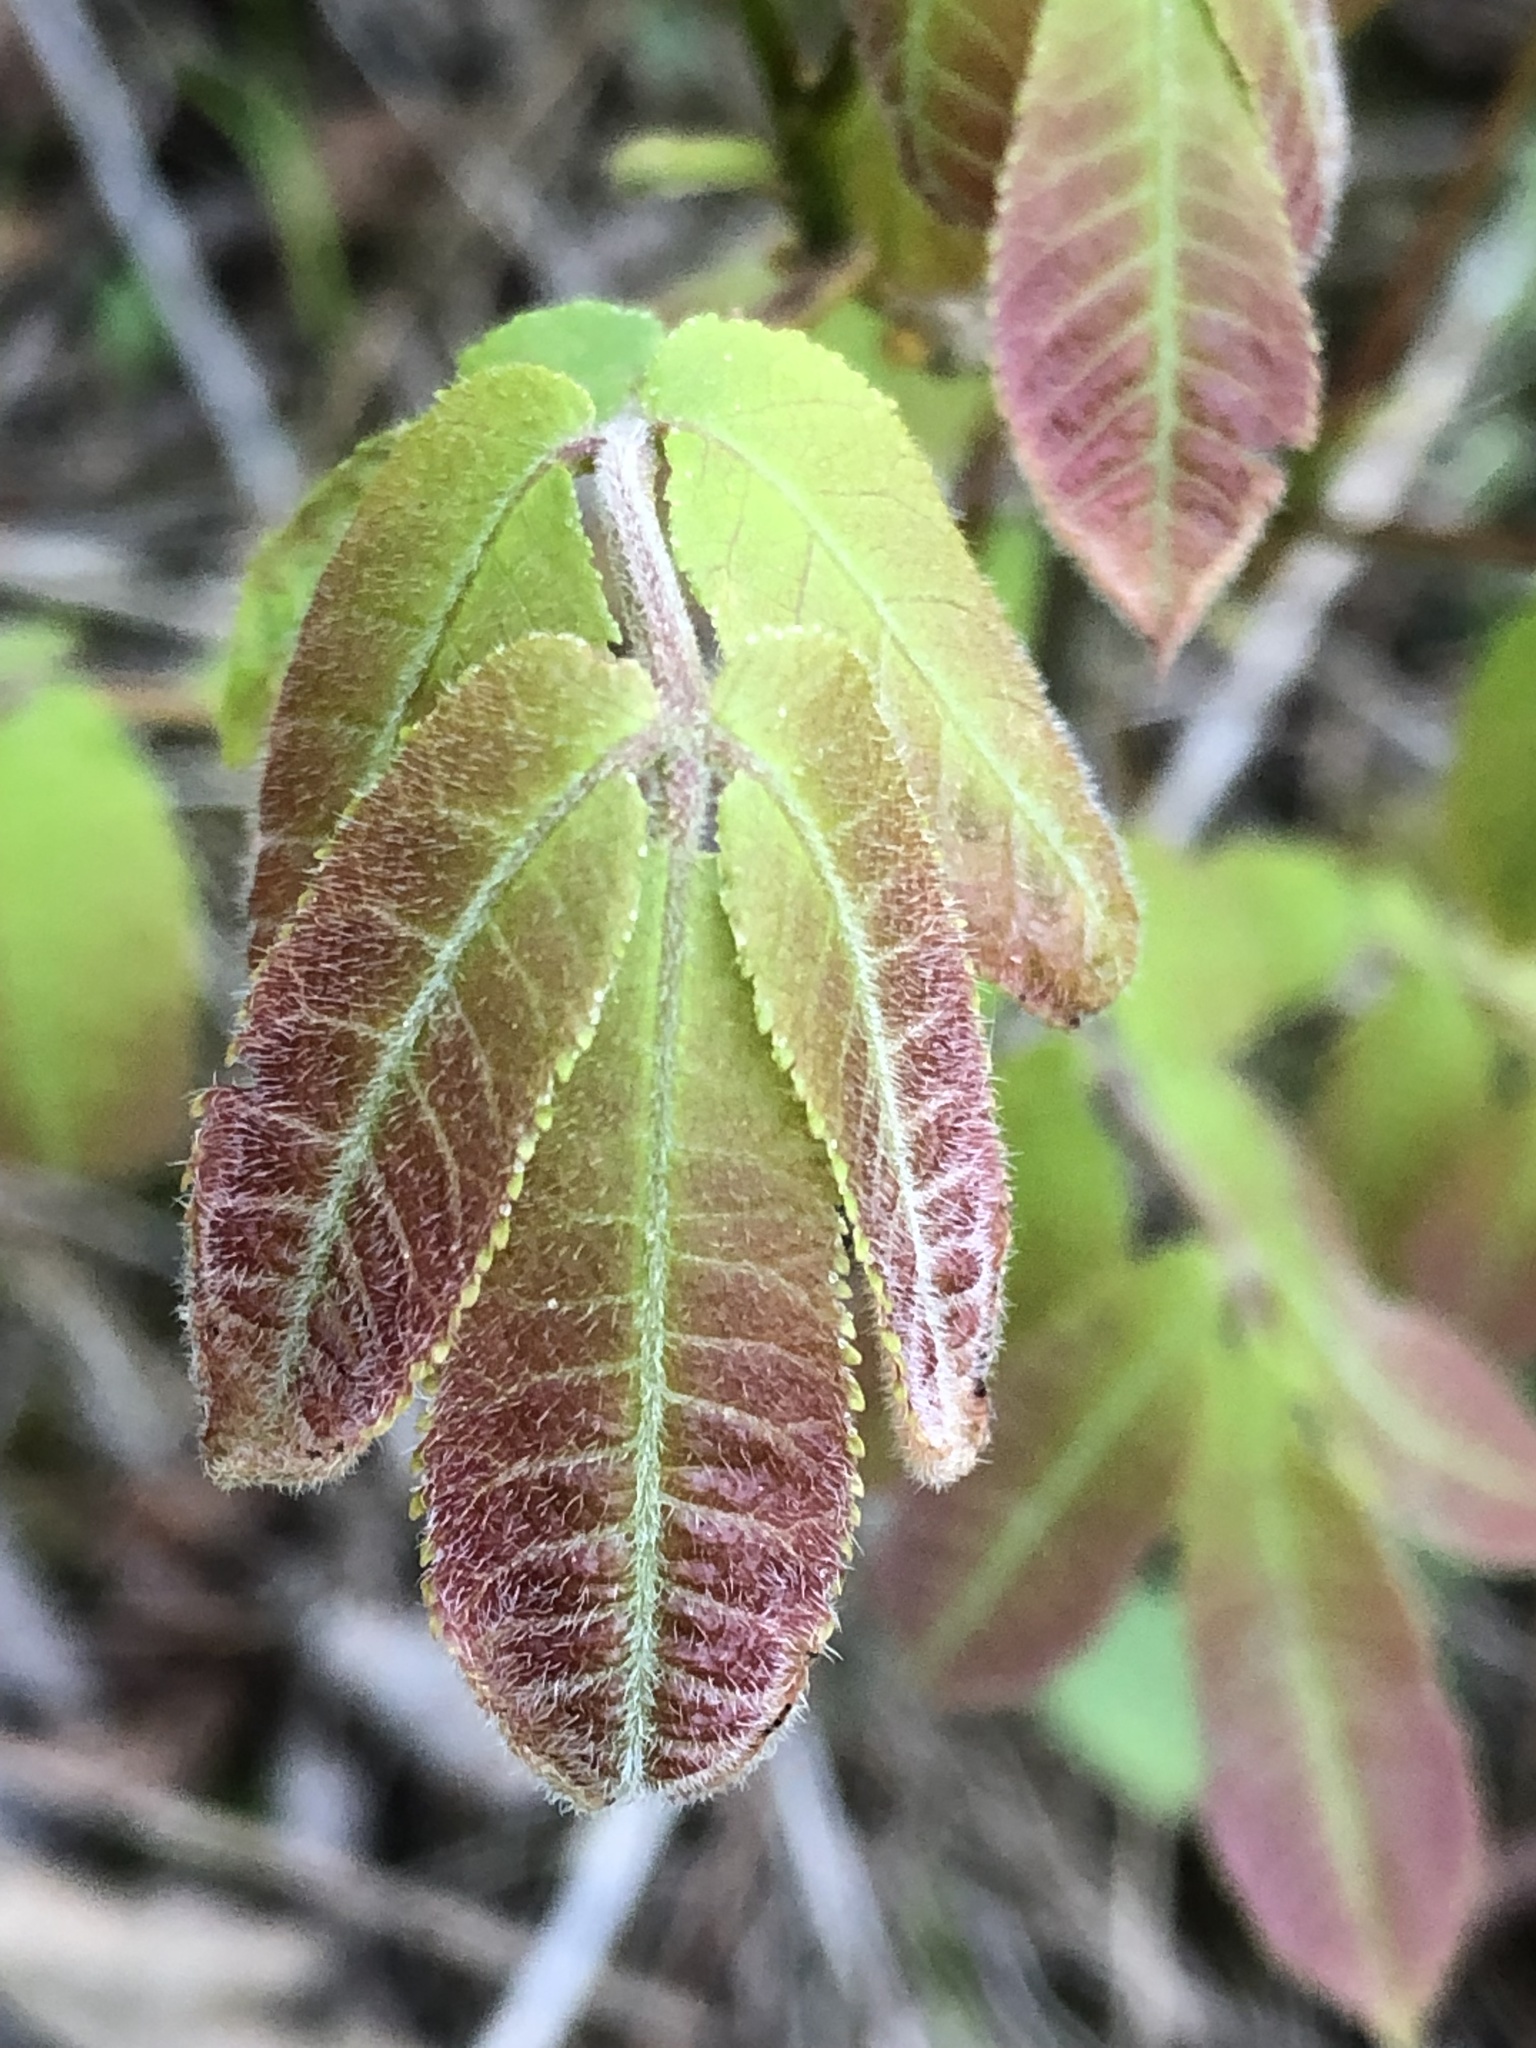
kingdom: Plantae
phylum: Tracheophyta
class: Magnoliopsida
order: Fagales
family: Juglandaceae
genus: Carya
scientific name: Carya cordiformis
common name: Bitternut hickory
